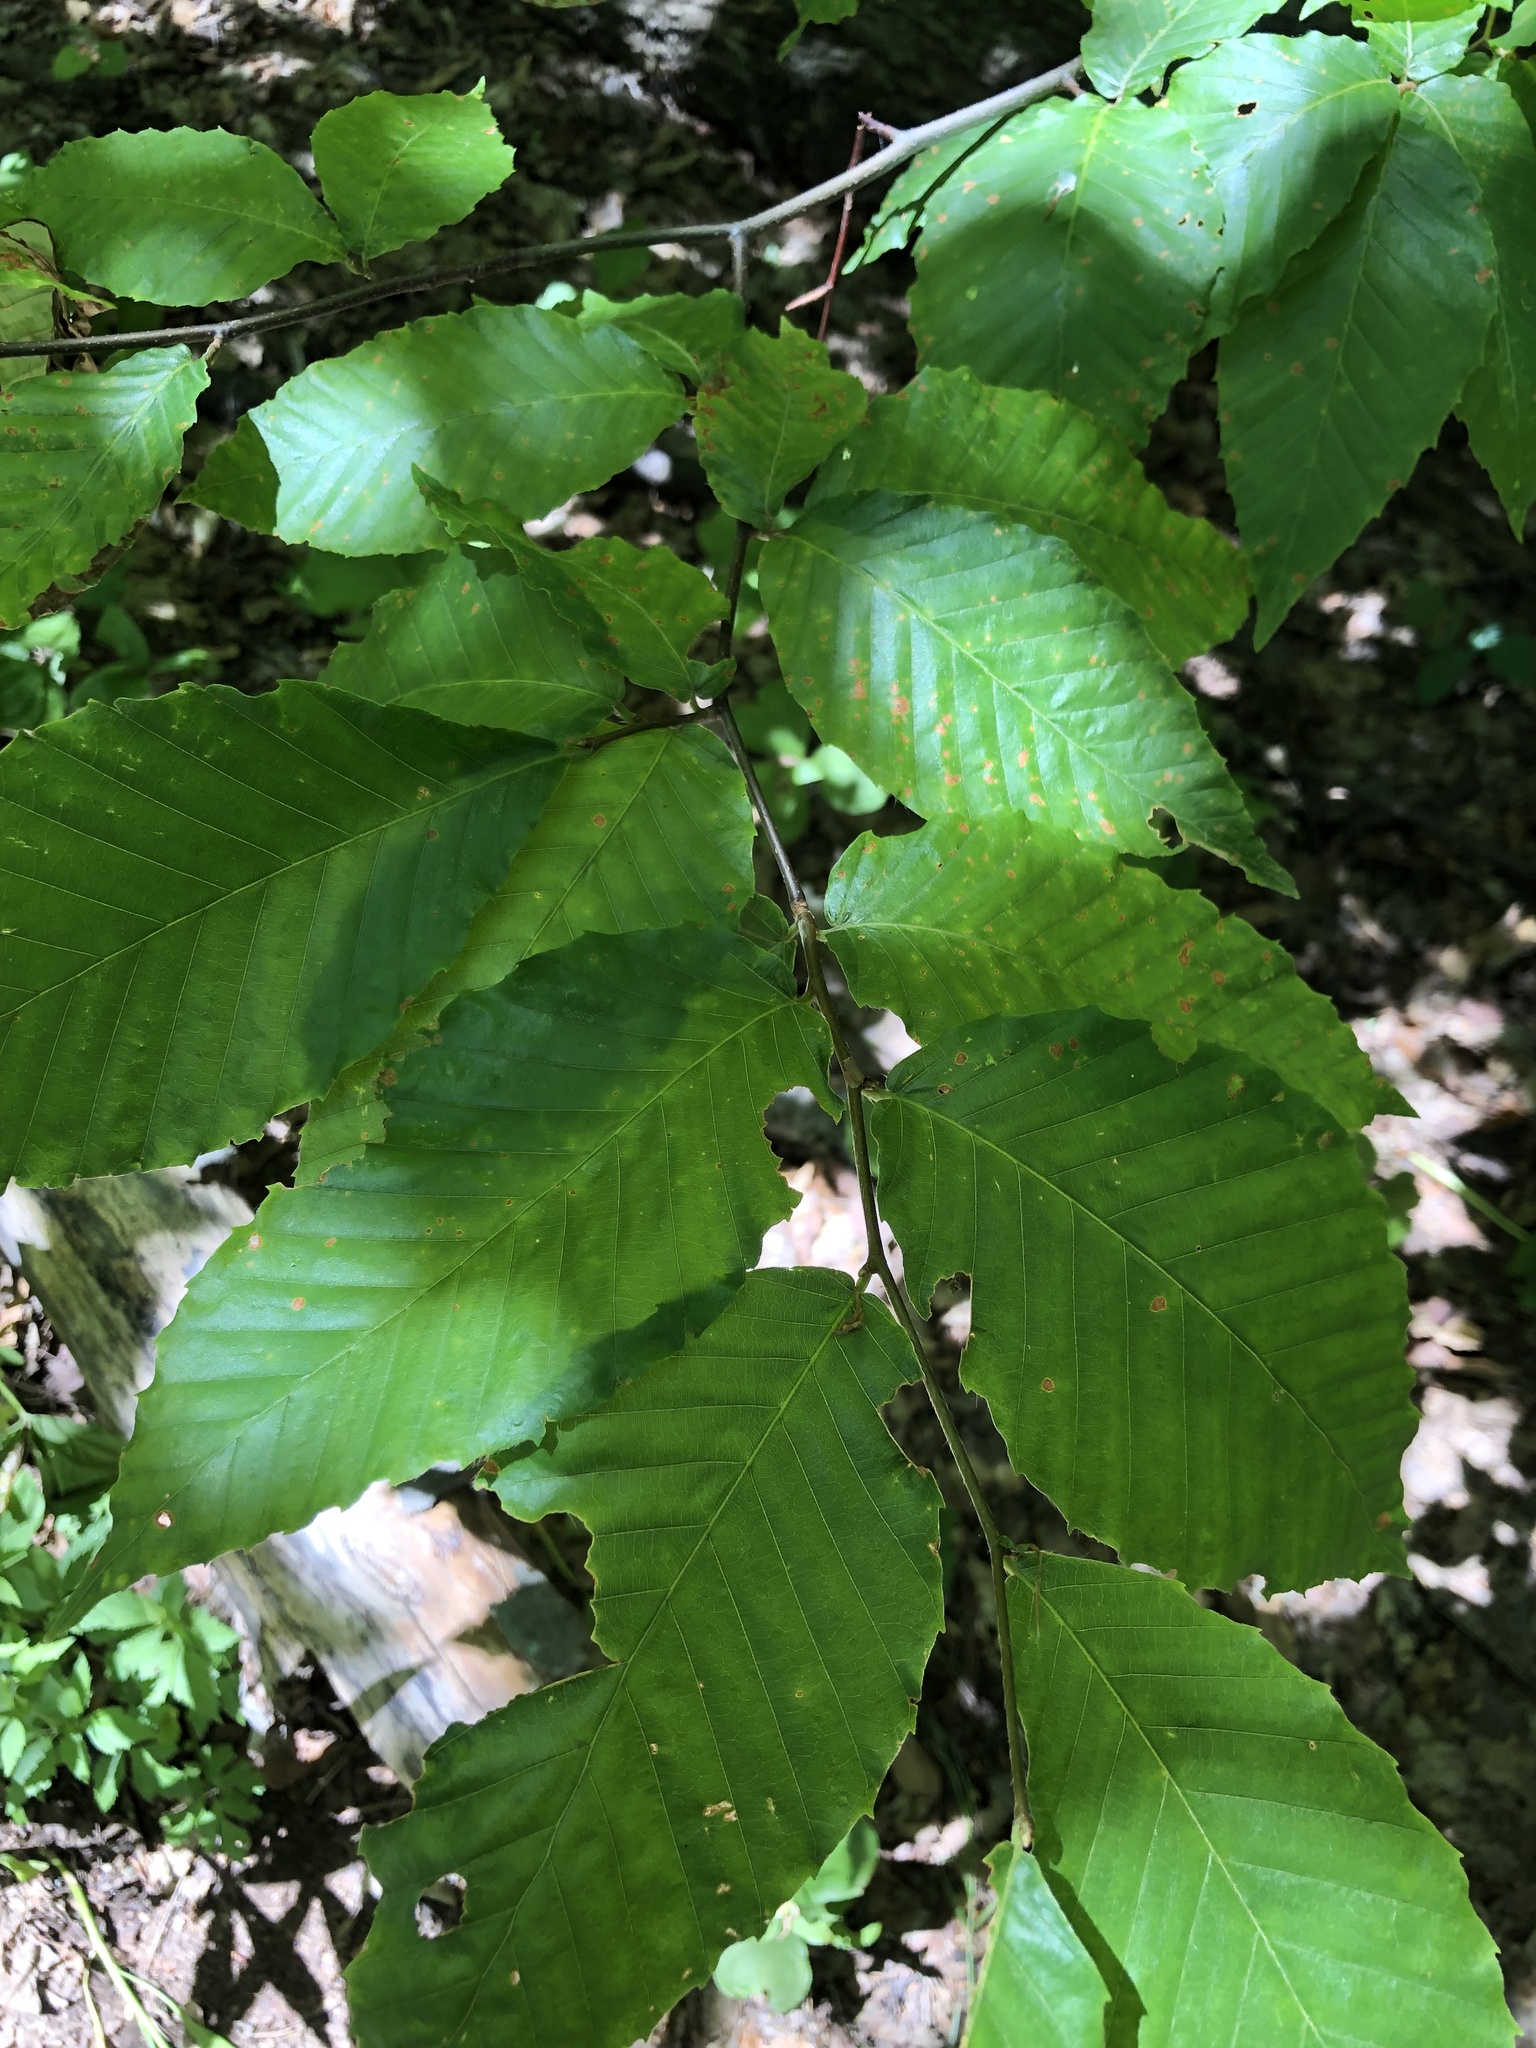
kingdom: Plantae
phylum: Tracheophyta
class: Magnoliopsida
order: Fagales
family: Fagaceae
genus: Fagus
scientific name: Fagus grandifolia
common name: American beech
